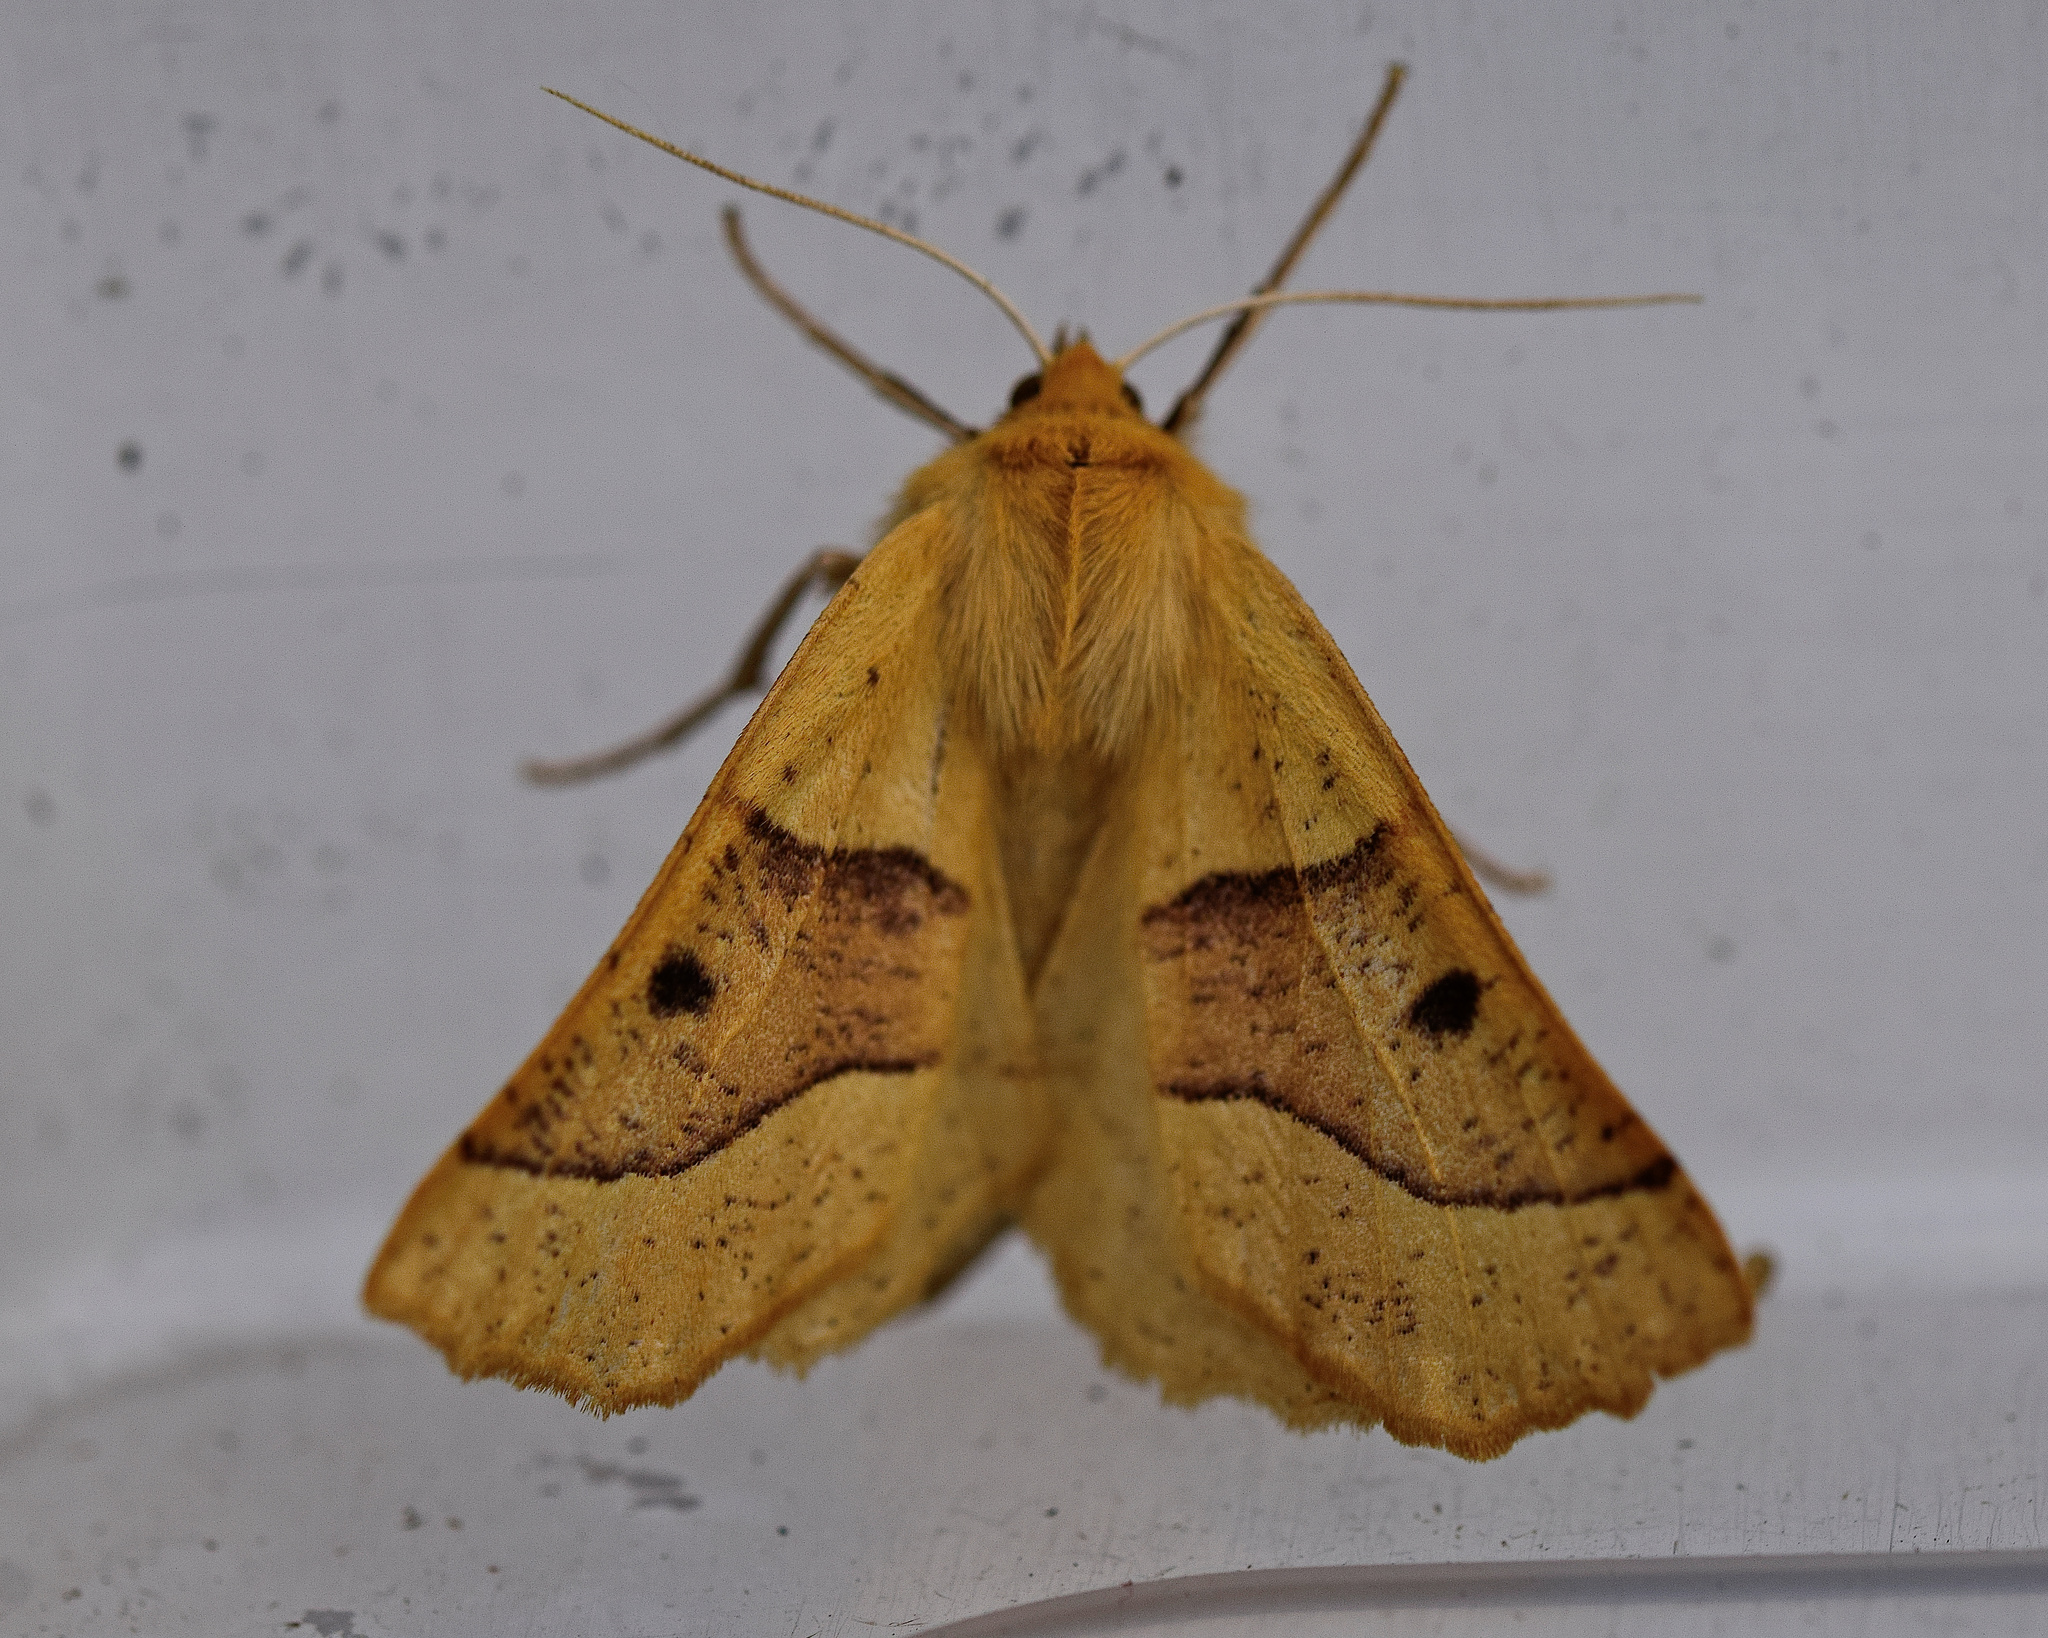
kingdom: Animalia
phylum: Arthropoda
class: Insecta
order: Lepidoptera
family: Geometridae
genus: Crocallis
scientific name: Crocallis elinguaria
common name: Scalloped oak
